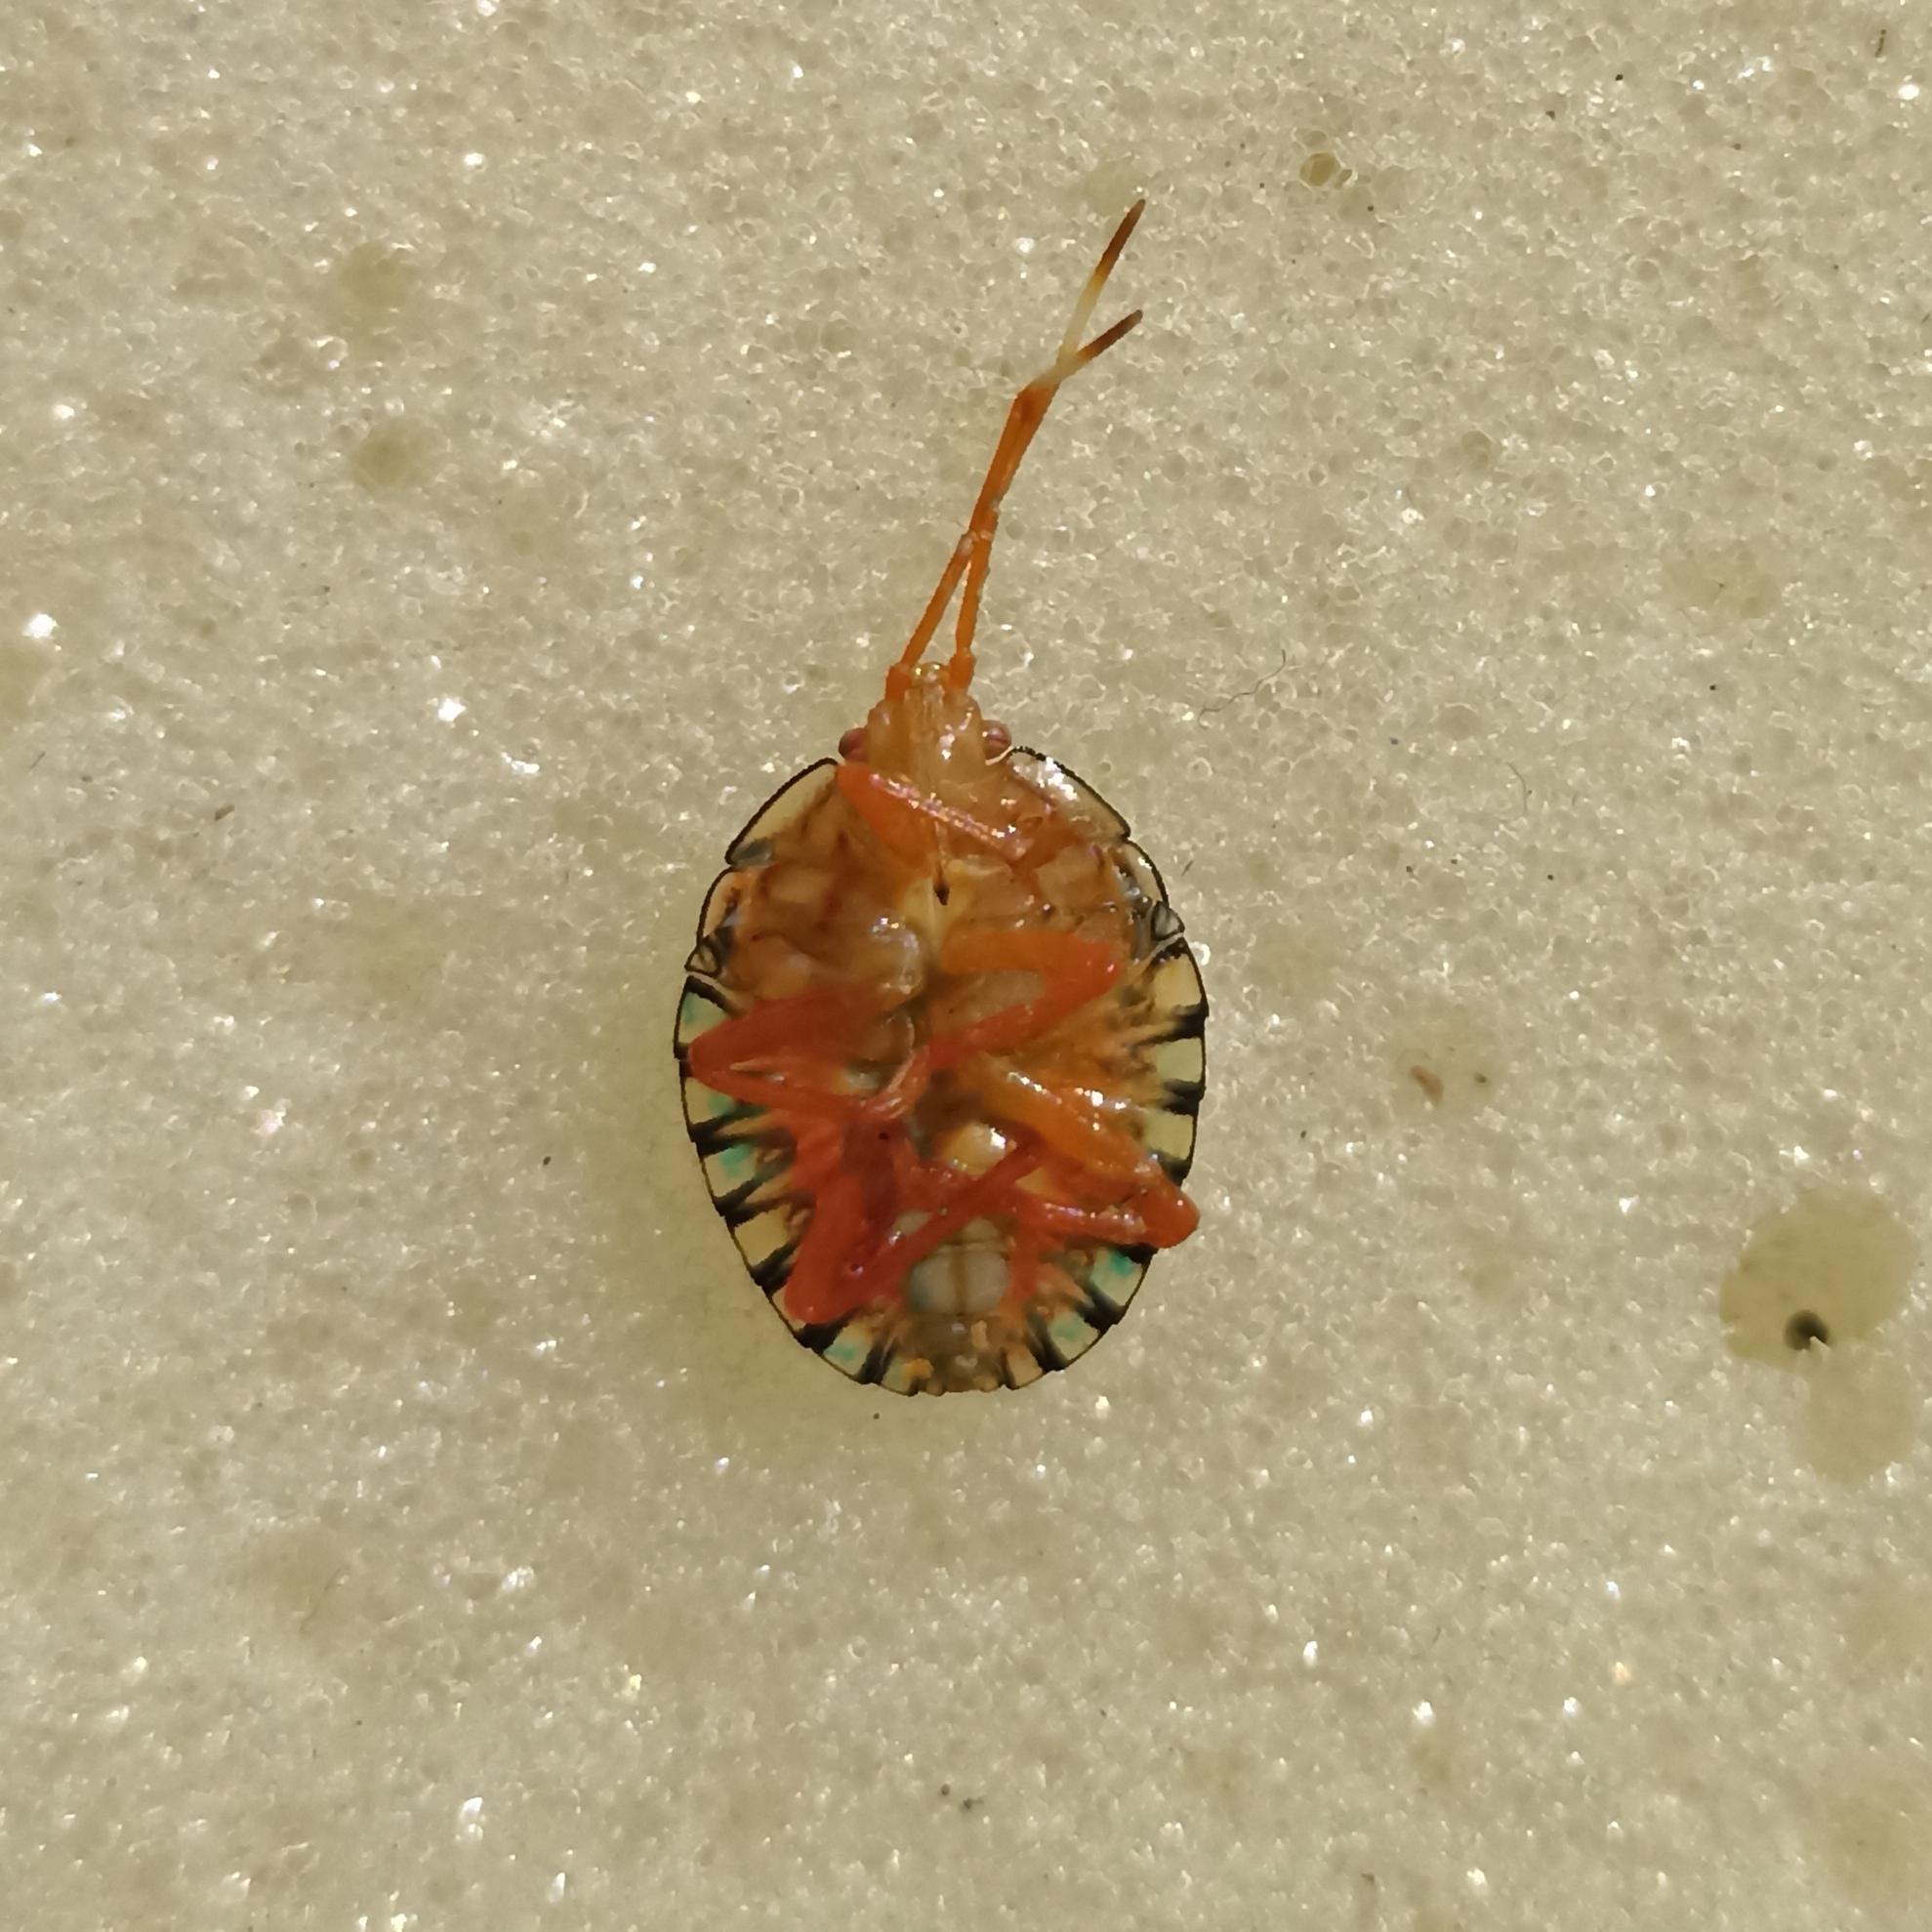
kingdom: Animalia
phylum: Arthropoda
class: Insecta
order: Hemiptera
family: Pentatomidae
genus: Edessa
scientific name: Edessa rufomarginata
